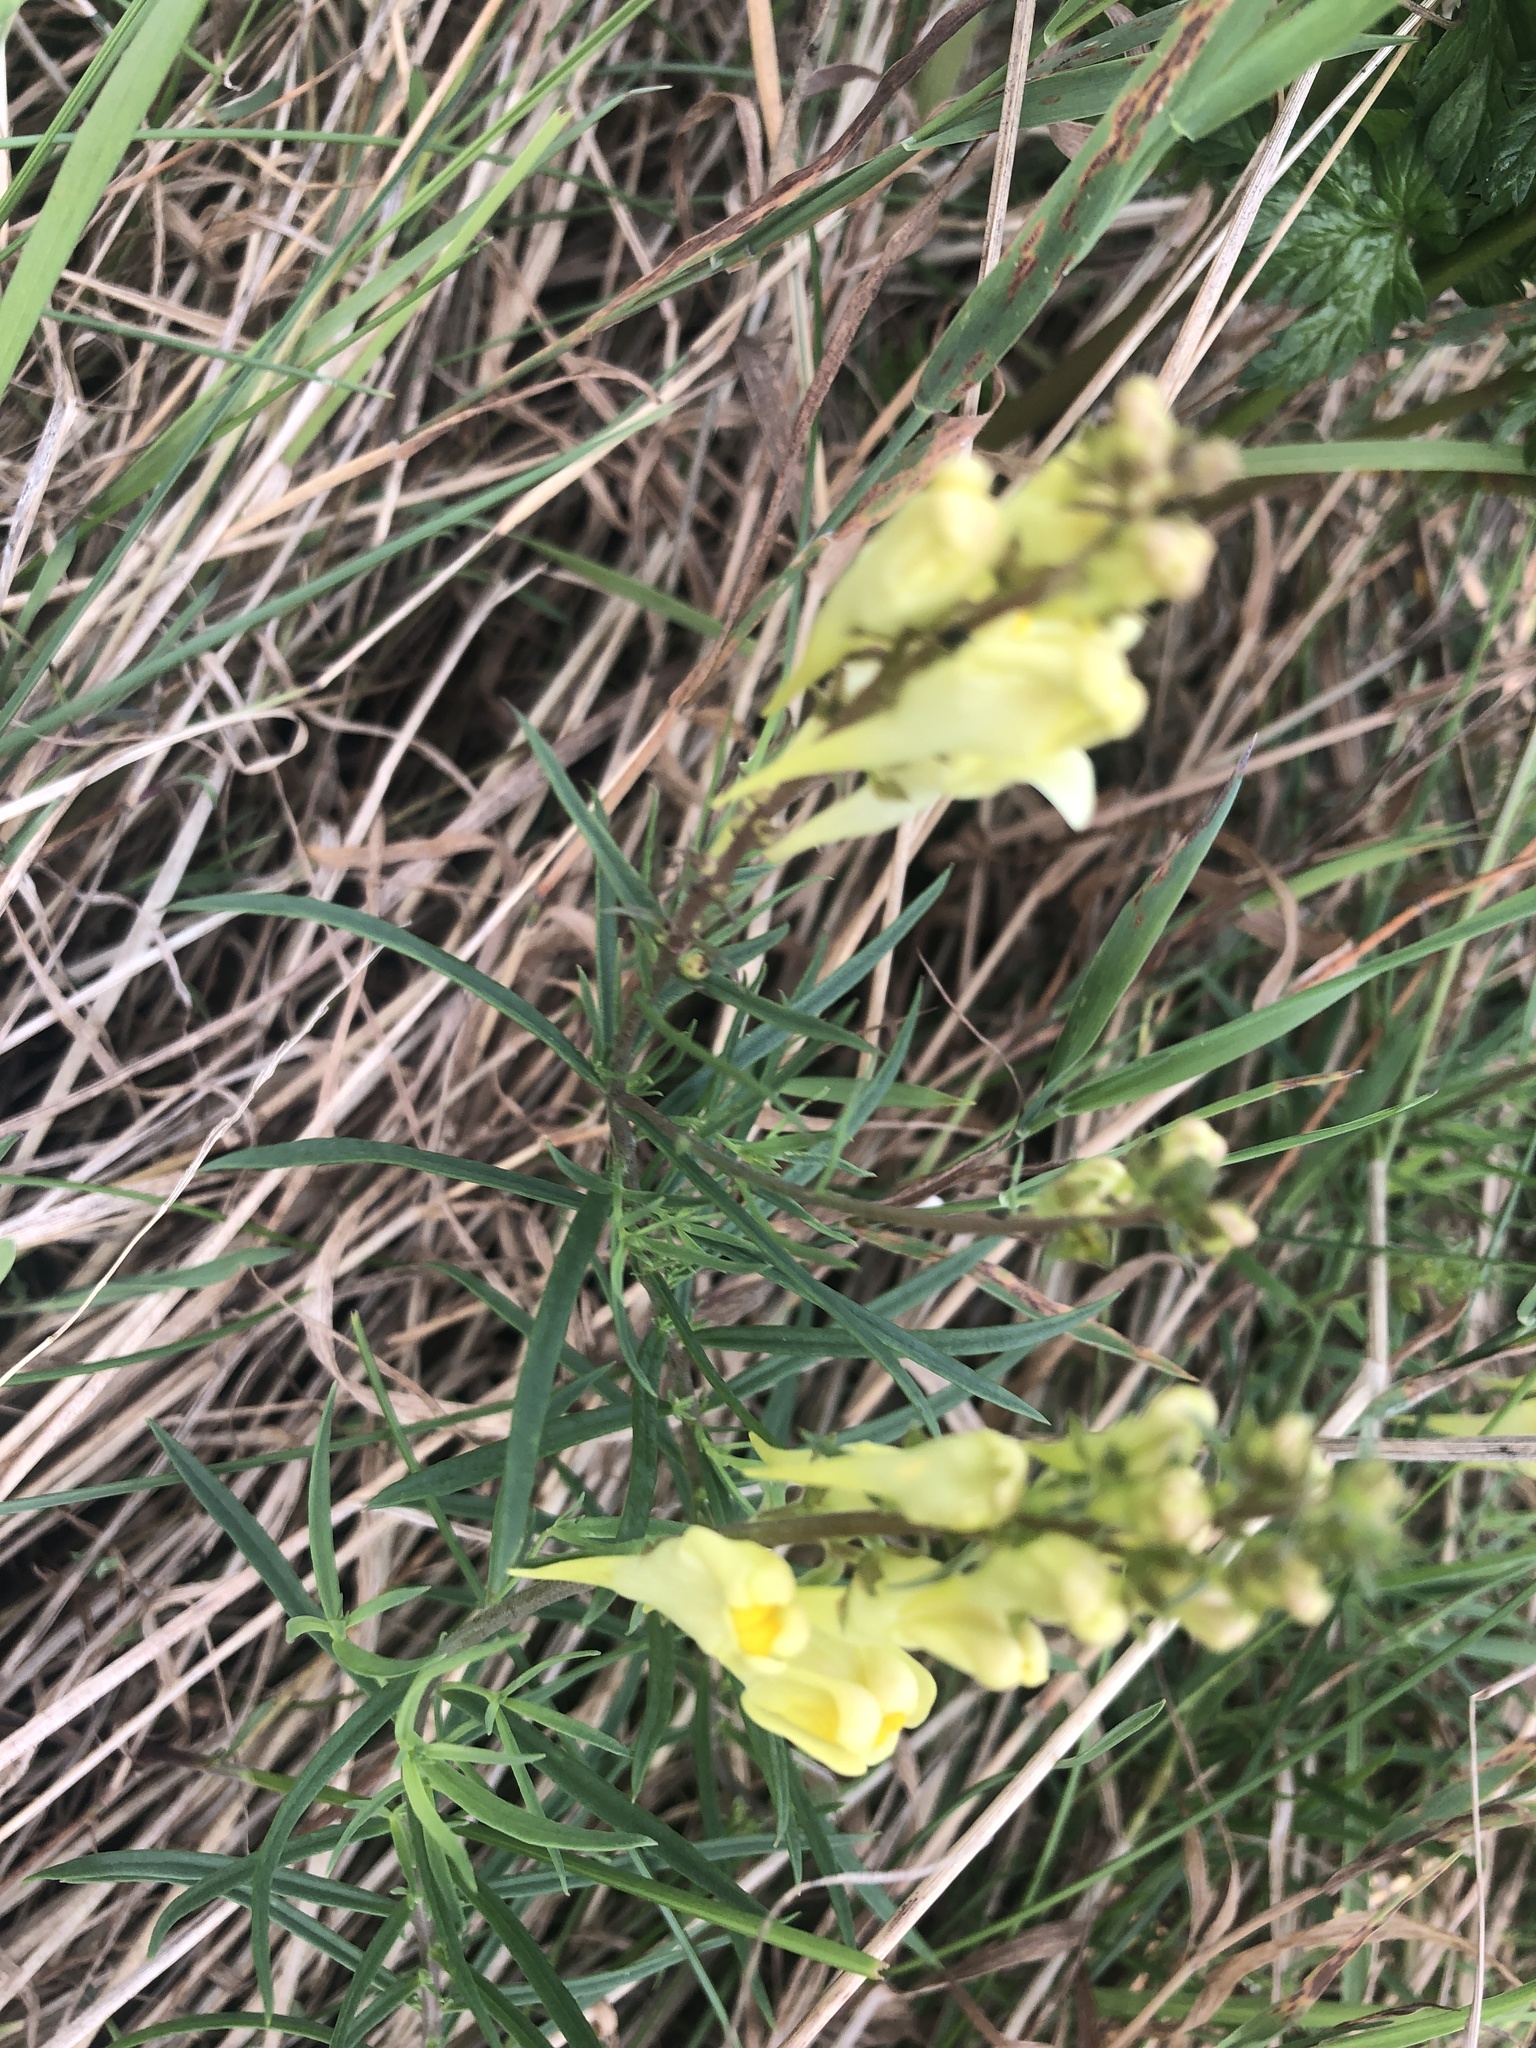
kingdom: Plantae
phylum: Tracheophyta
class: Magnoliopsida
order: Lamiales
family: Plantaginaceae
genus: Linaria
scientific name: Linaria vulgaris
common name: Butter and eggs
